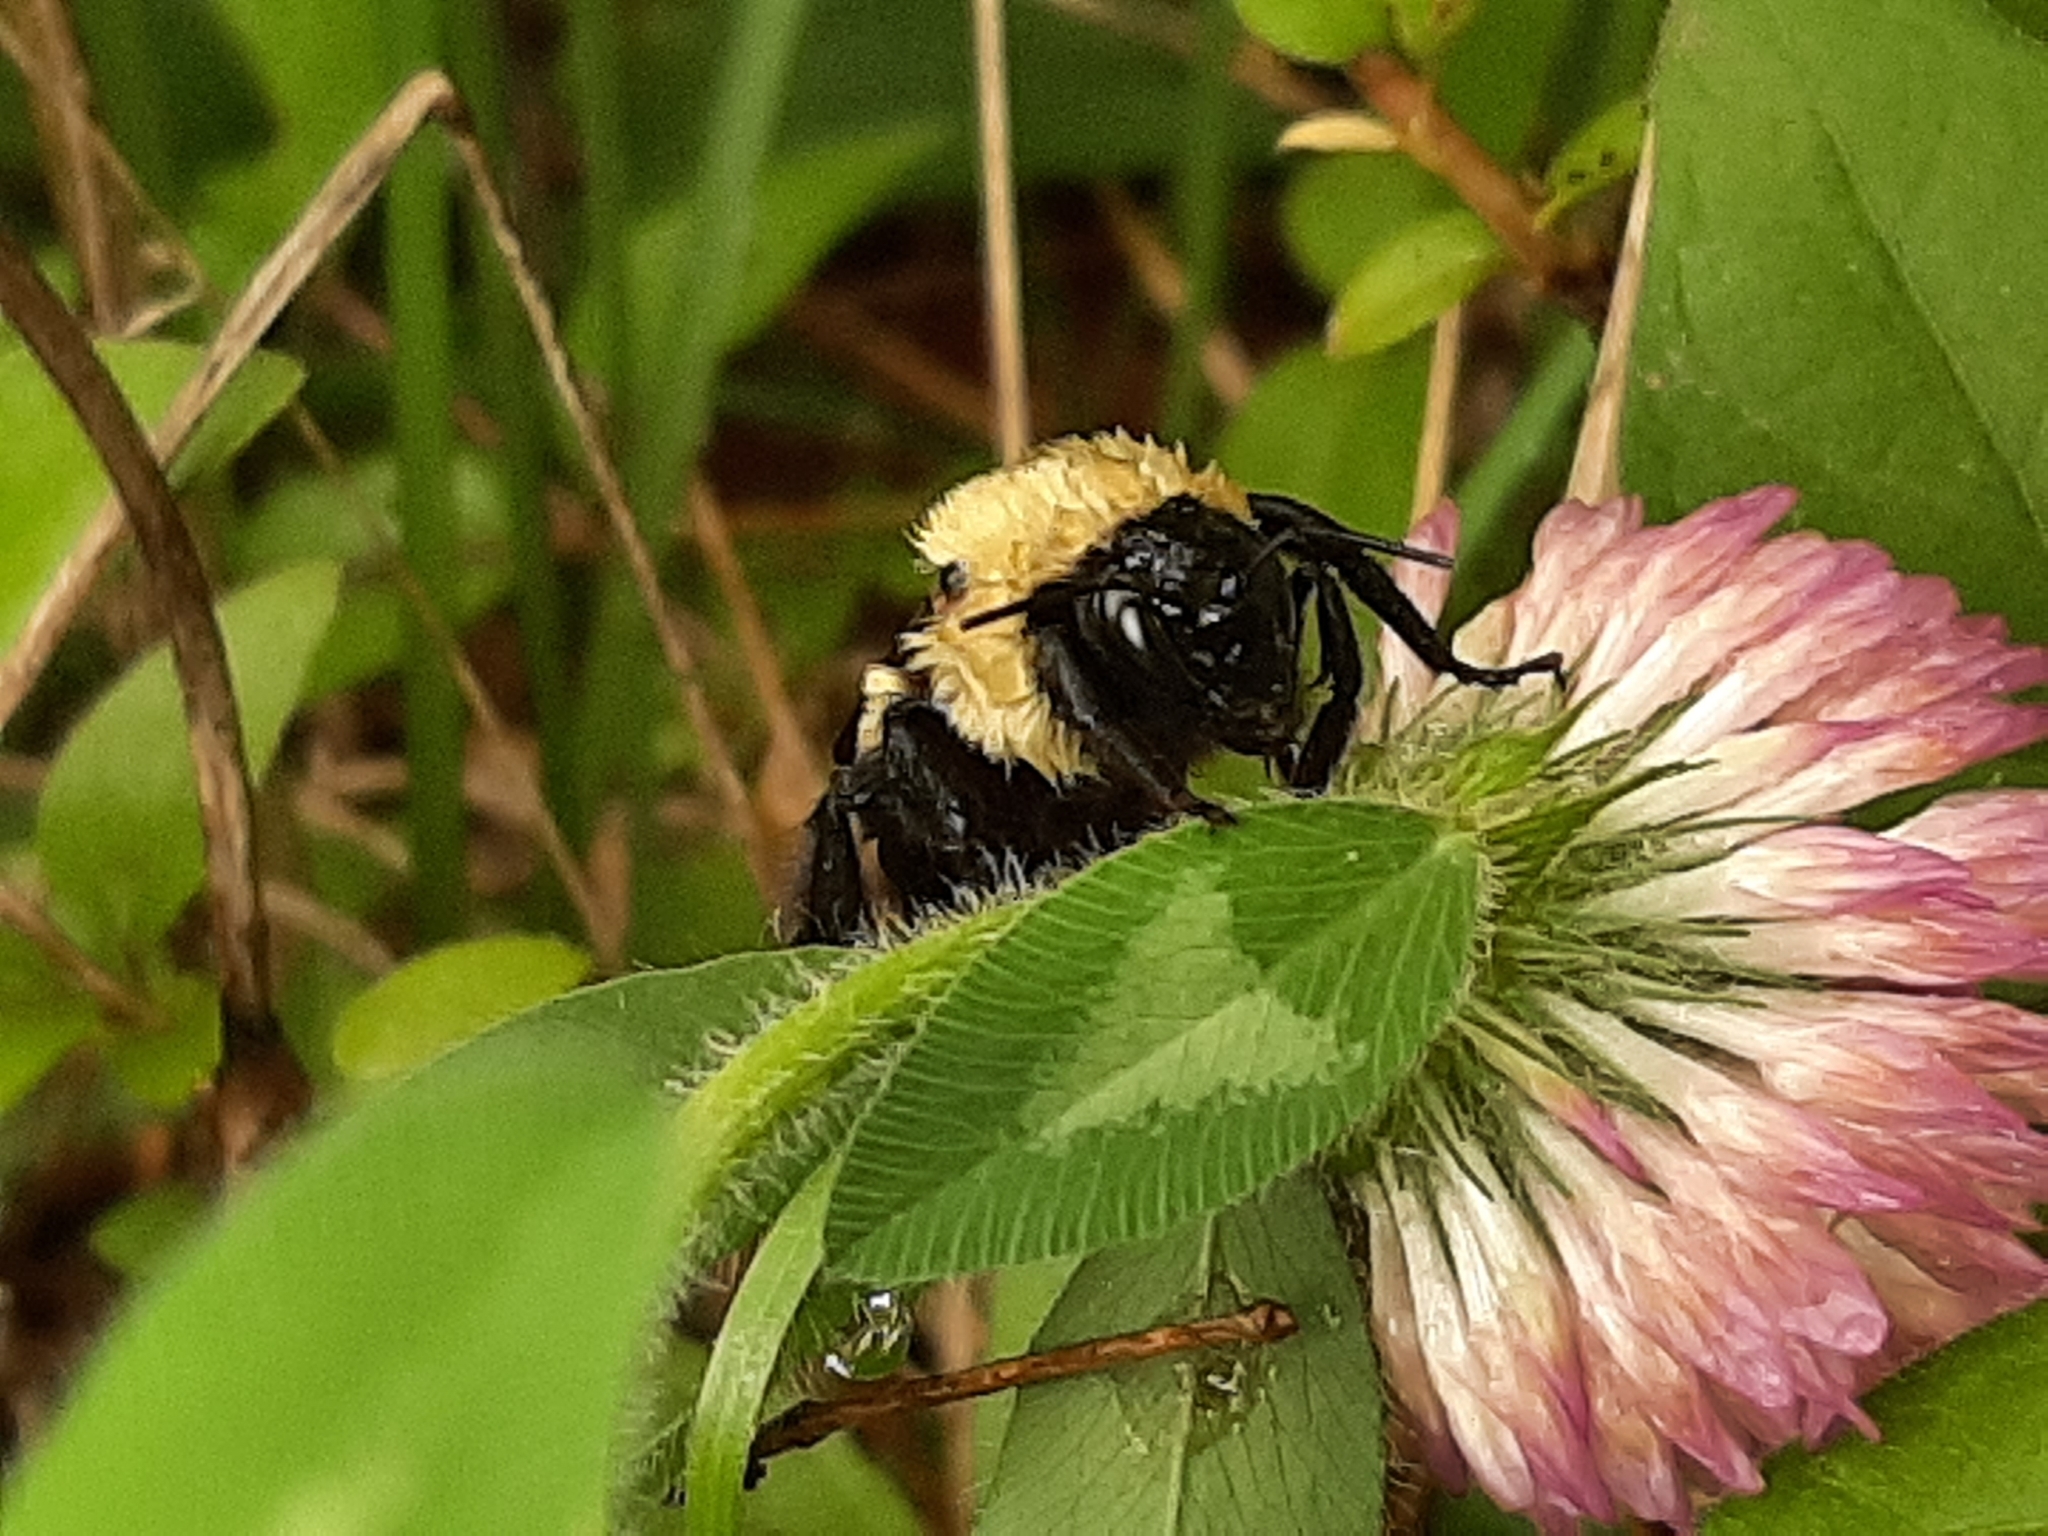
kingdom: Animalia
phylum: Arthropoda
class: Insecta
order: Hymenoptera
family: Apidae
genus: Bombus
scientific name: Bombus griseocollis
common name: Brown-belted bumble bee
